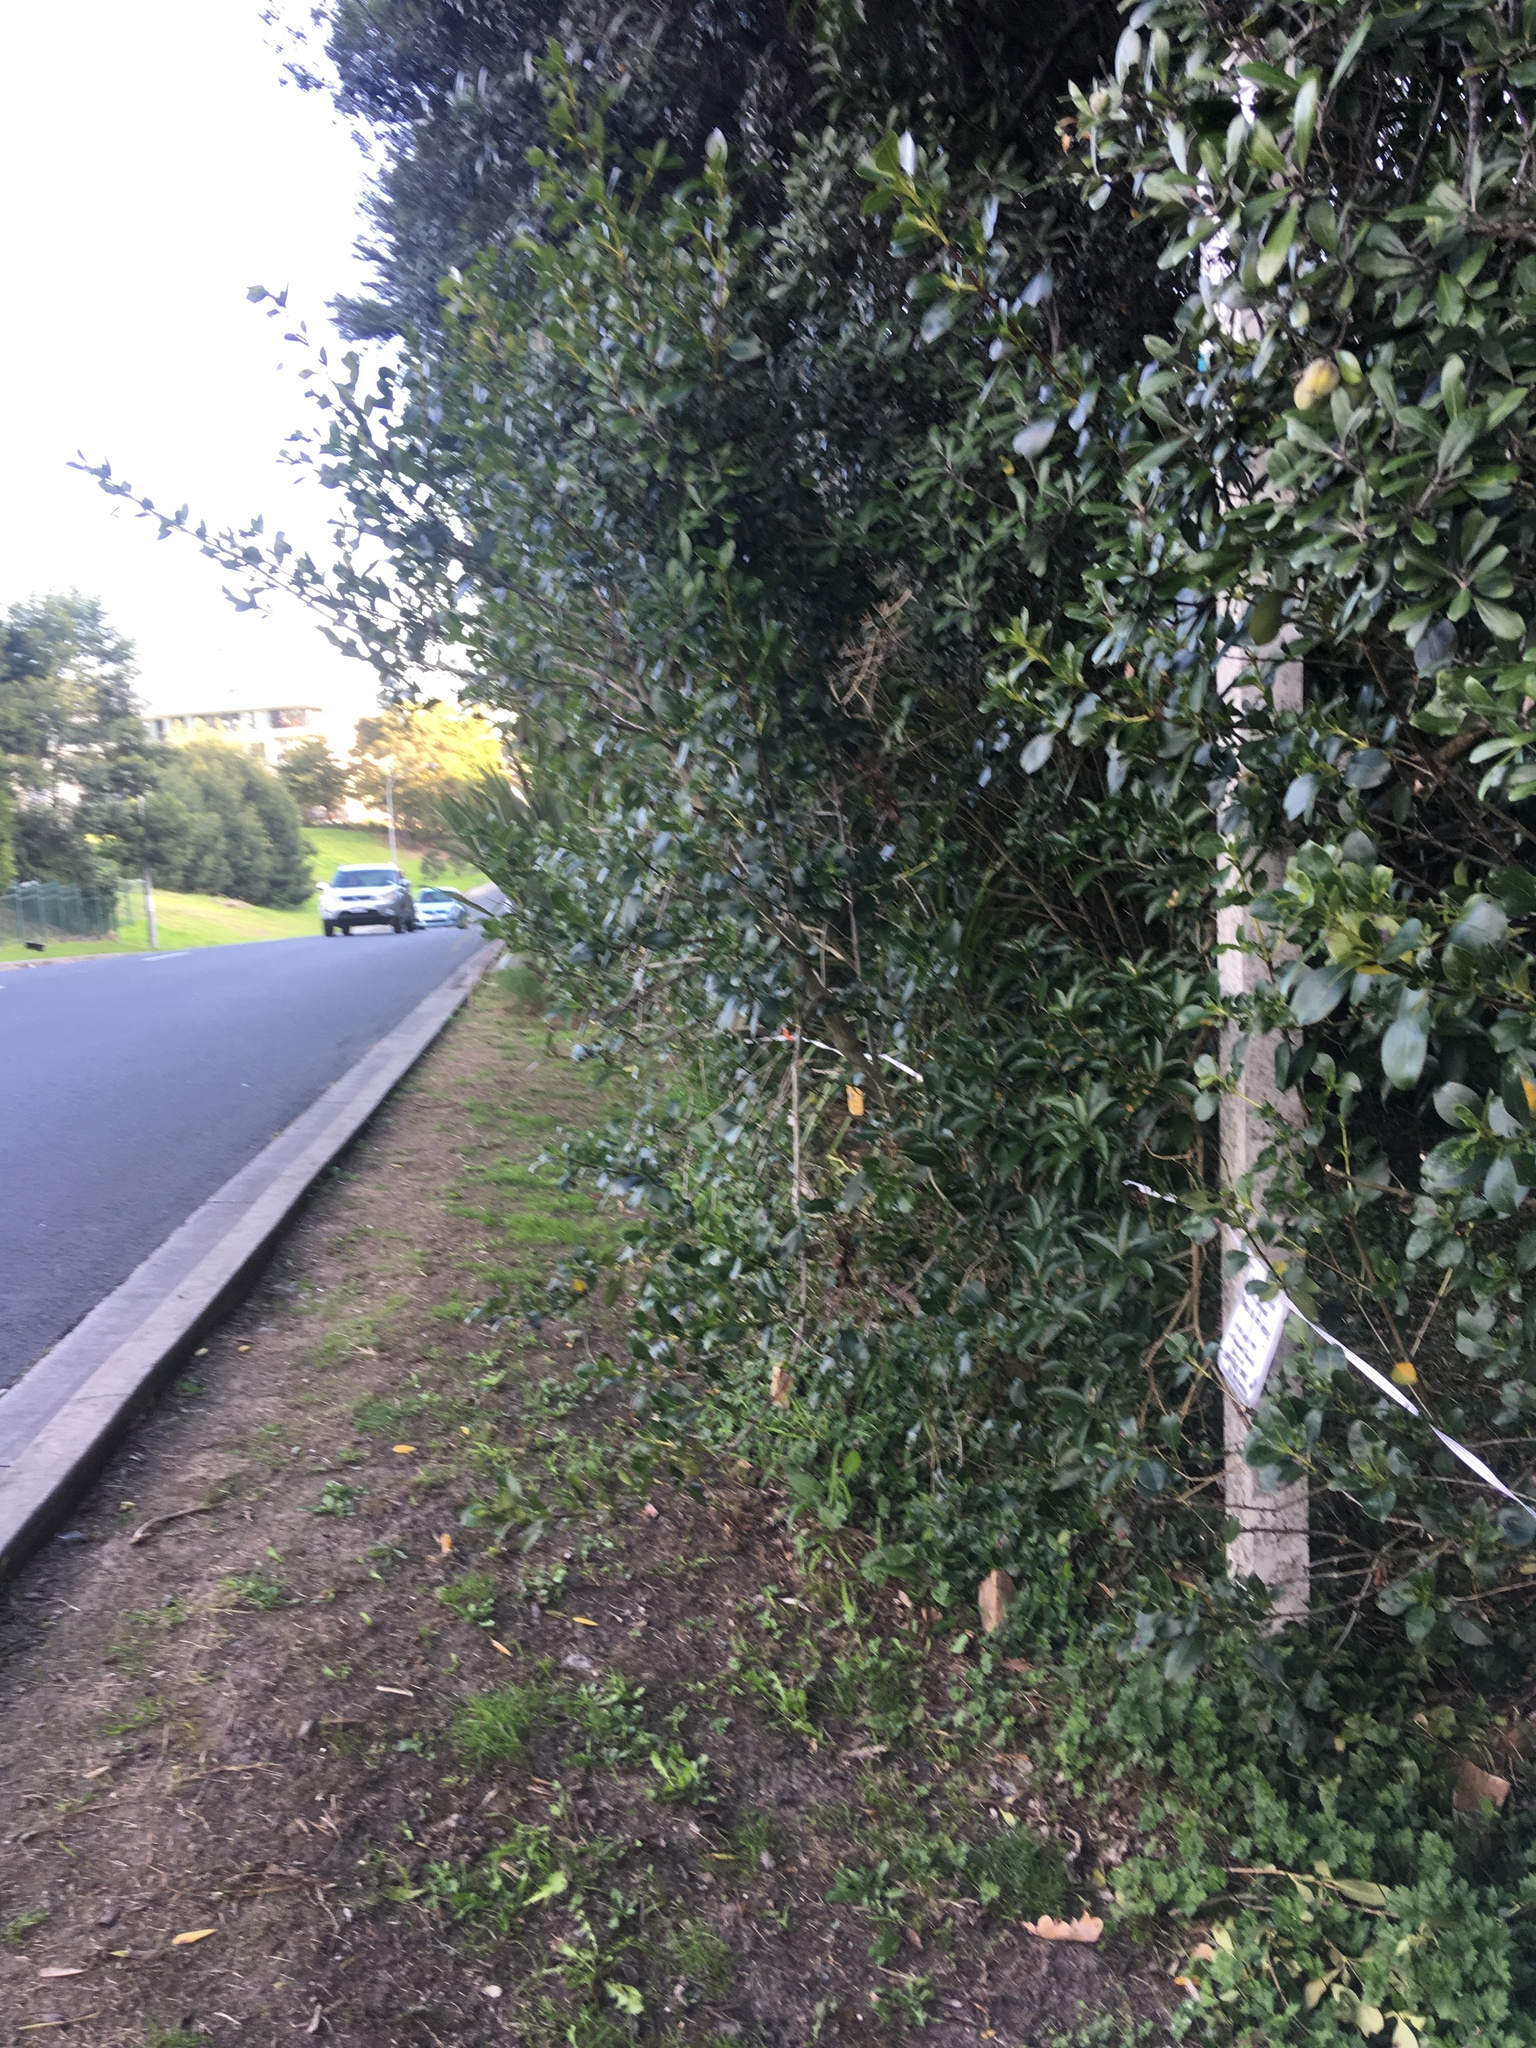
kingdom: Plantae
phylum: Tracheophyta
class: Magnoliopsida
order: Apiales
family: Pittosporaceae
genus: Pittosporum
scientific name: Pittosporum crassifolium
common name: Karo
